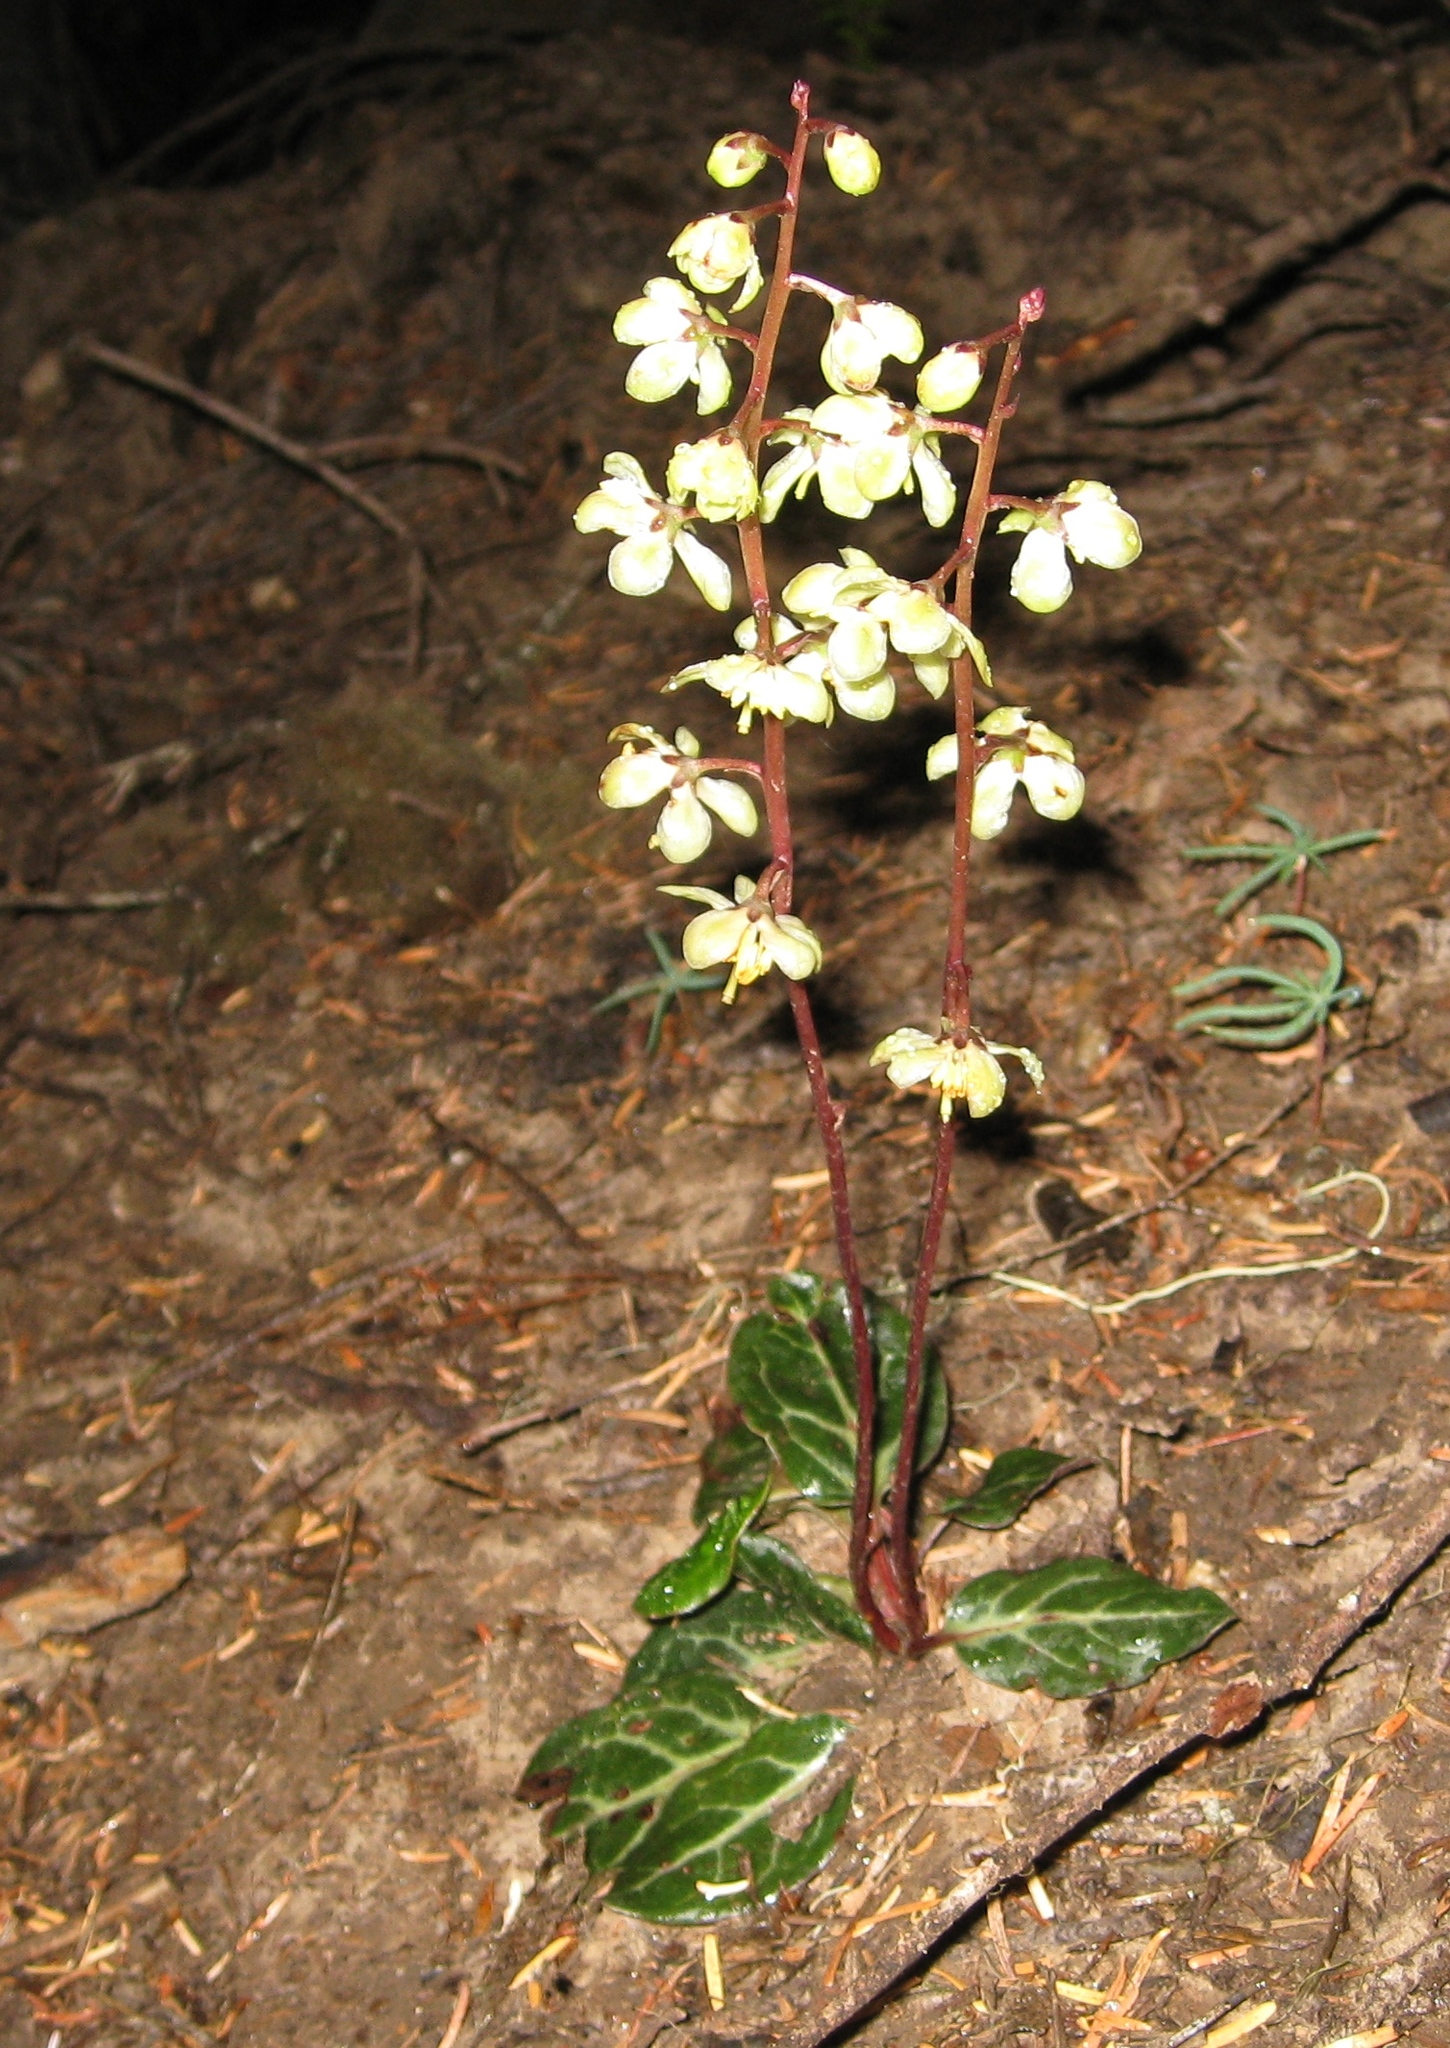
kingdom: Plantae
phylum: Tracheophyta
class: Magnoliopsida
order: Ericales
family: Ericaceae
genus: Pyrola
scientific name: Pyrola picta
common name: White-vein wintergreen
